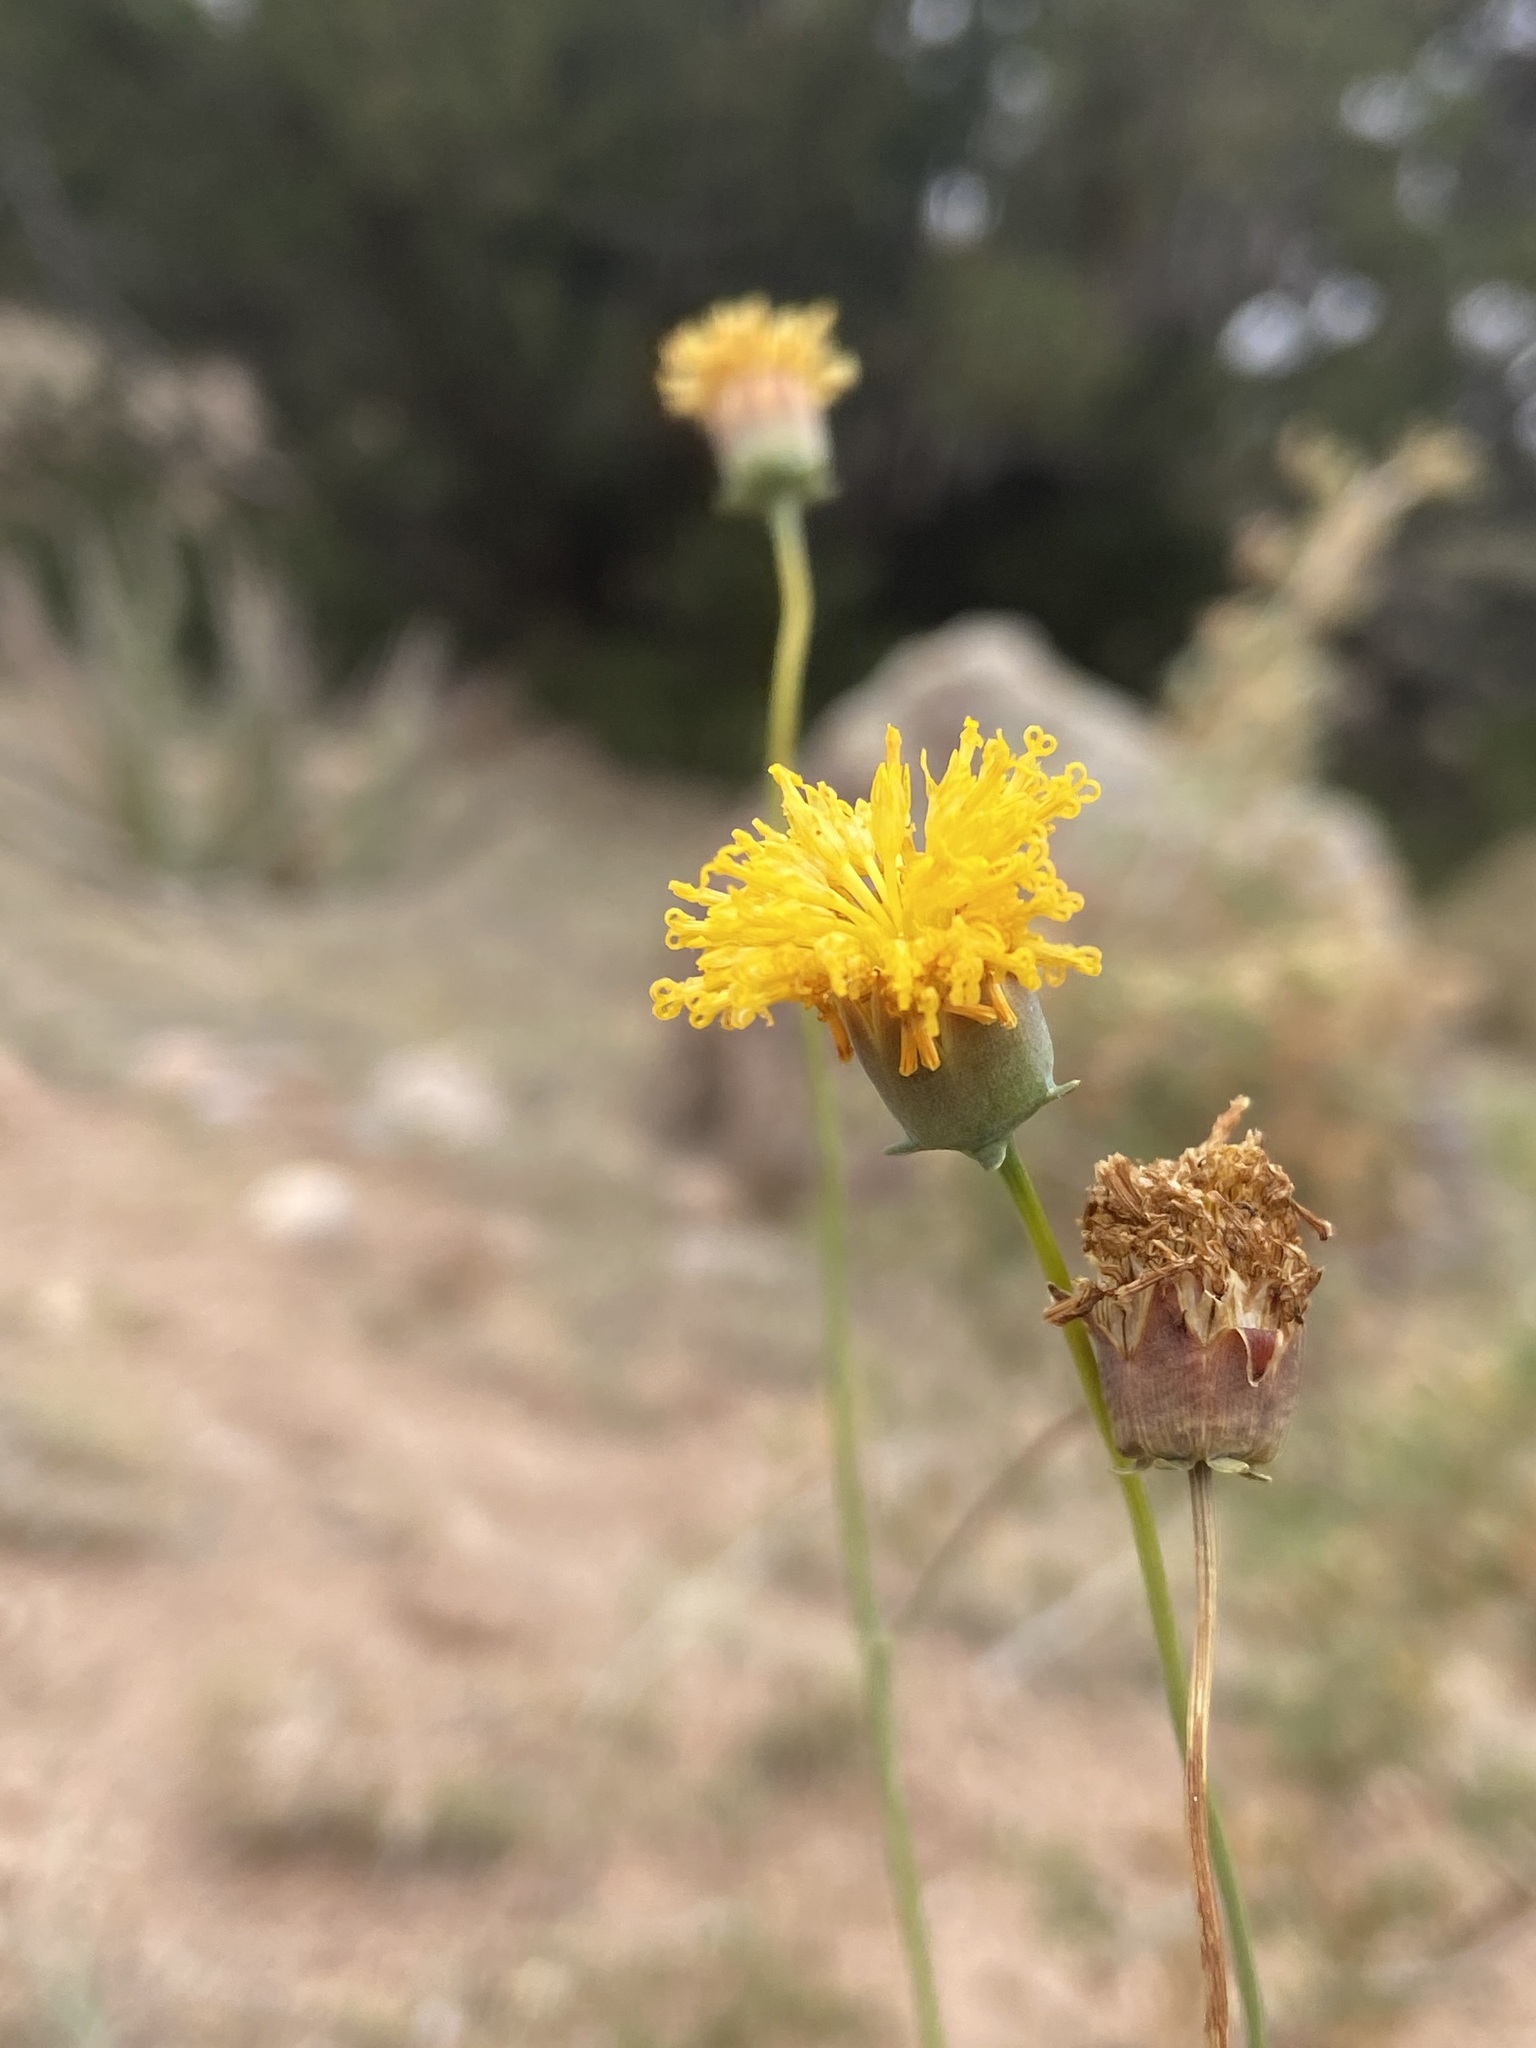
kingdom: Plantae
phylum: Tracheophyta
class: Magnoliopsida
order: Asterales
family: Asteraceae
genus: Thelesperma
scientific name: Thelesperma megapotamicum
